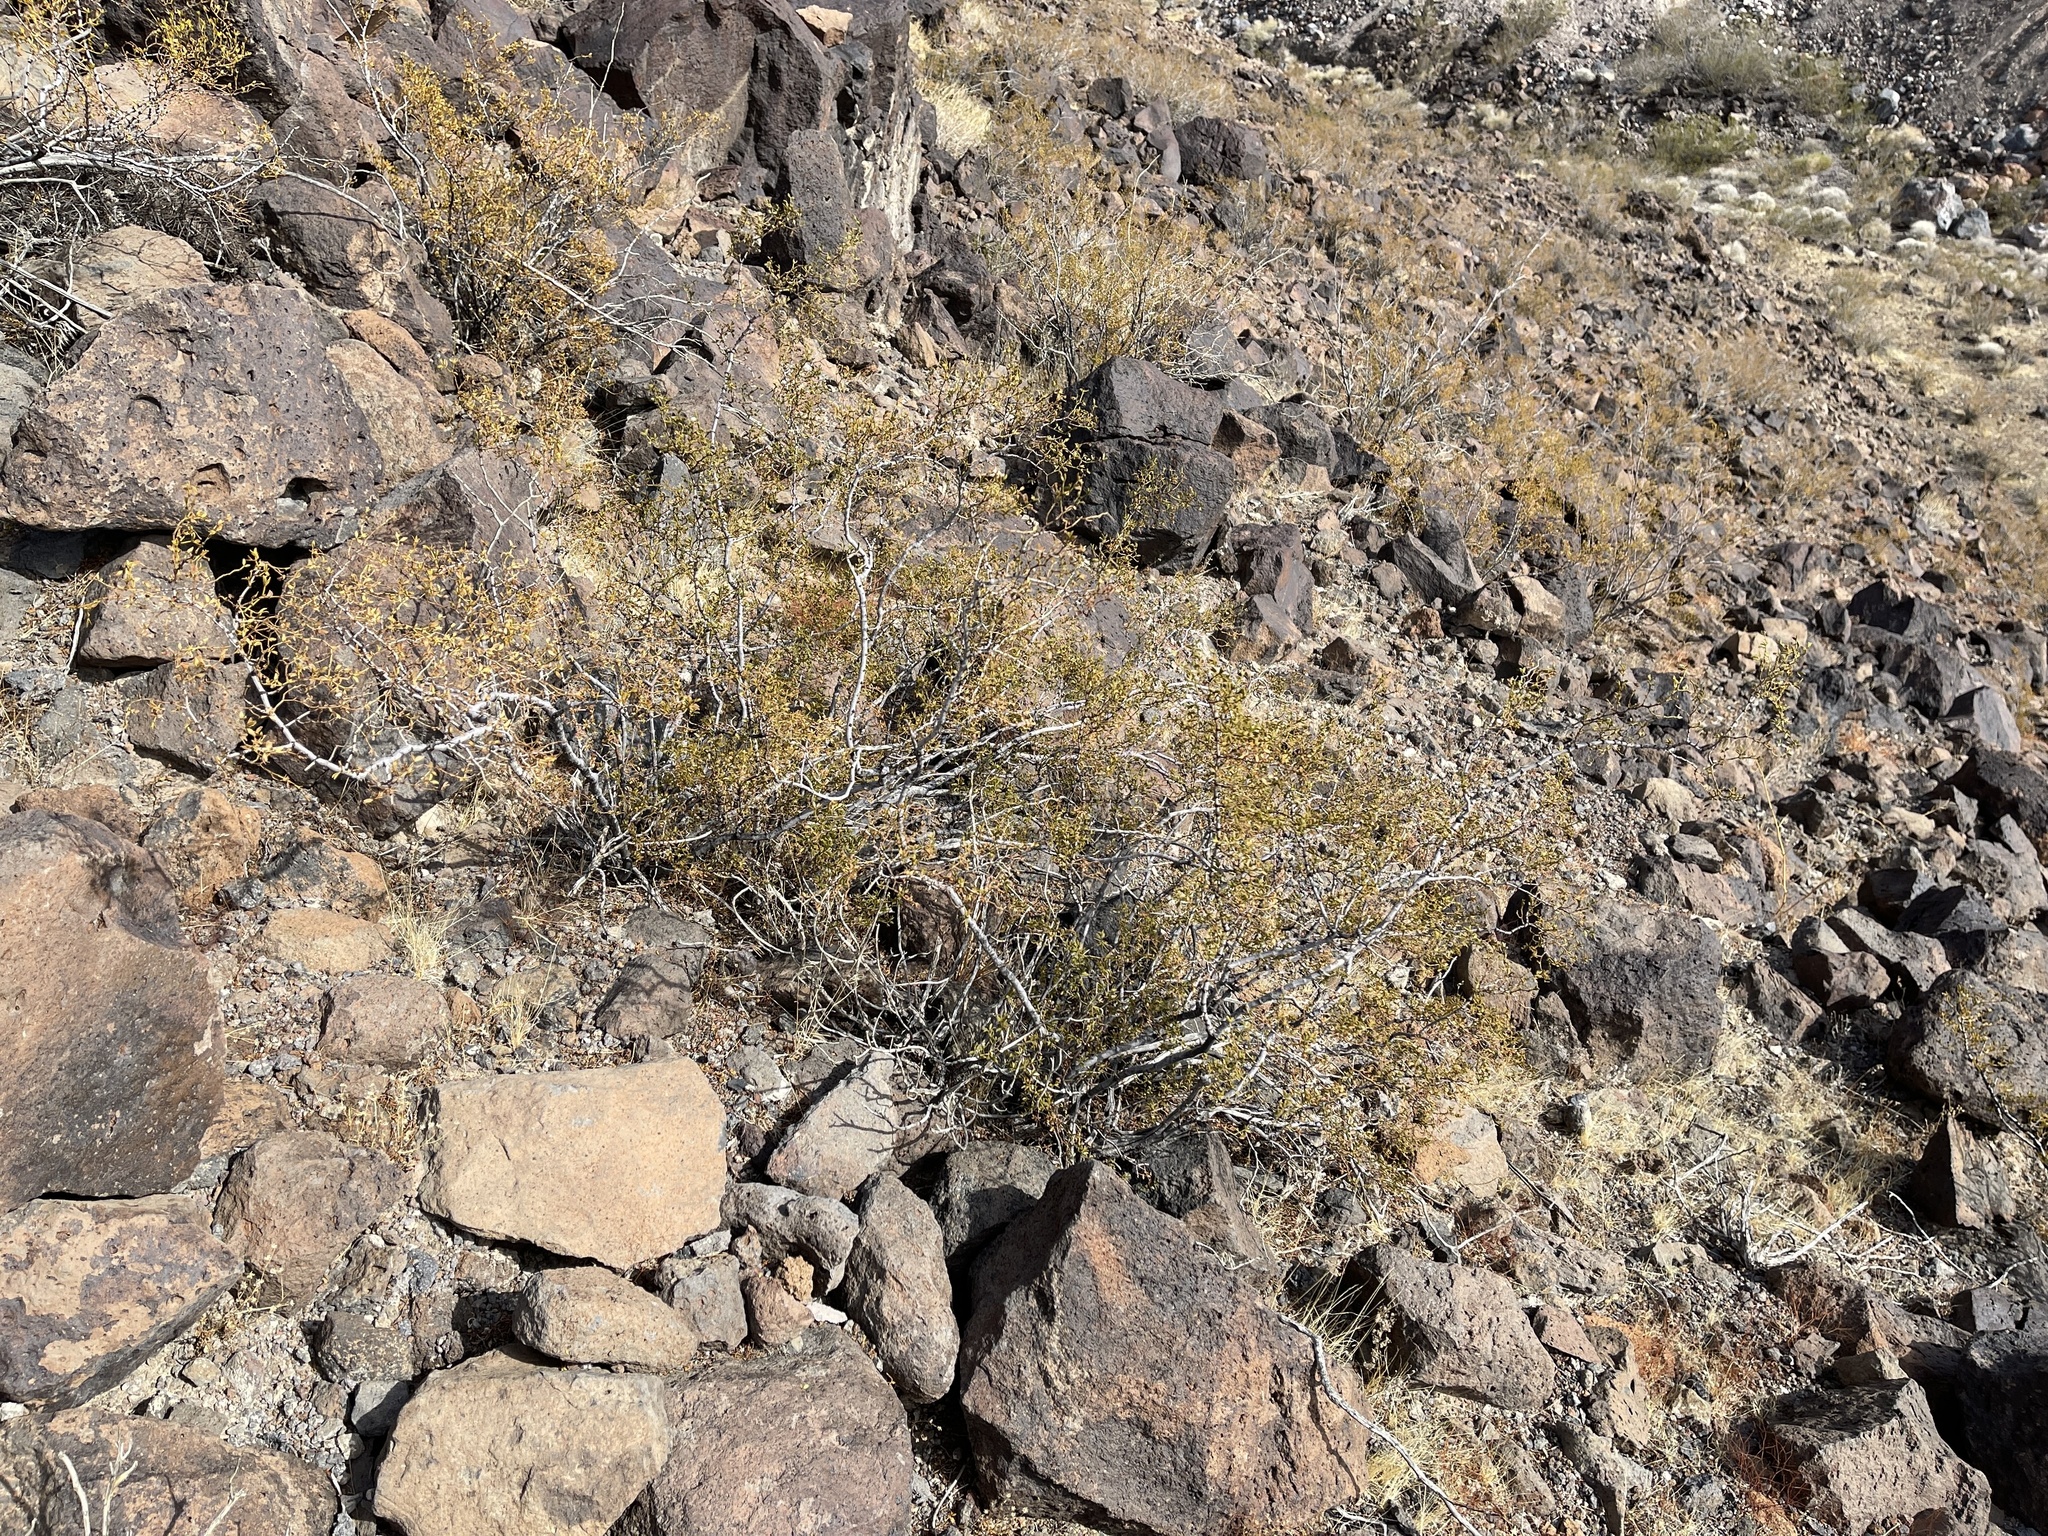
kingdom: Plantae
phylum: Tracheophyta
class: Magnoliopsida
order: Zygophyllales
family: Zygophyllaceae
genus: Larrea
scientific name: Larrea tridentata
